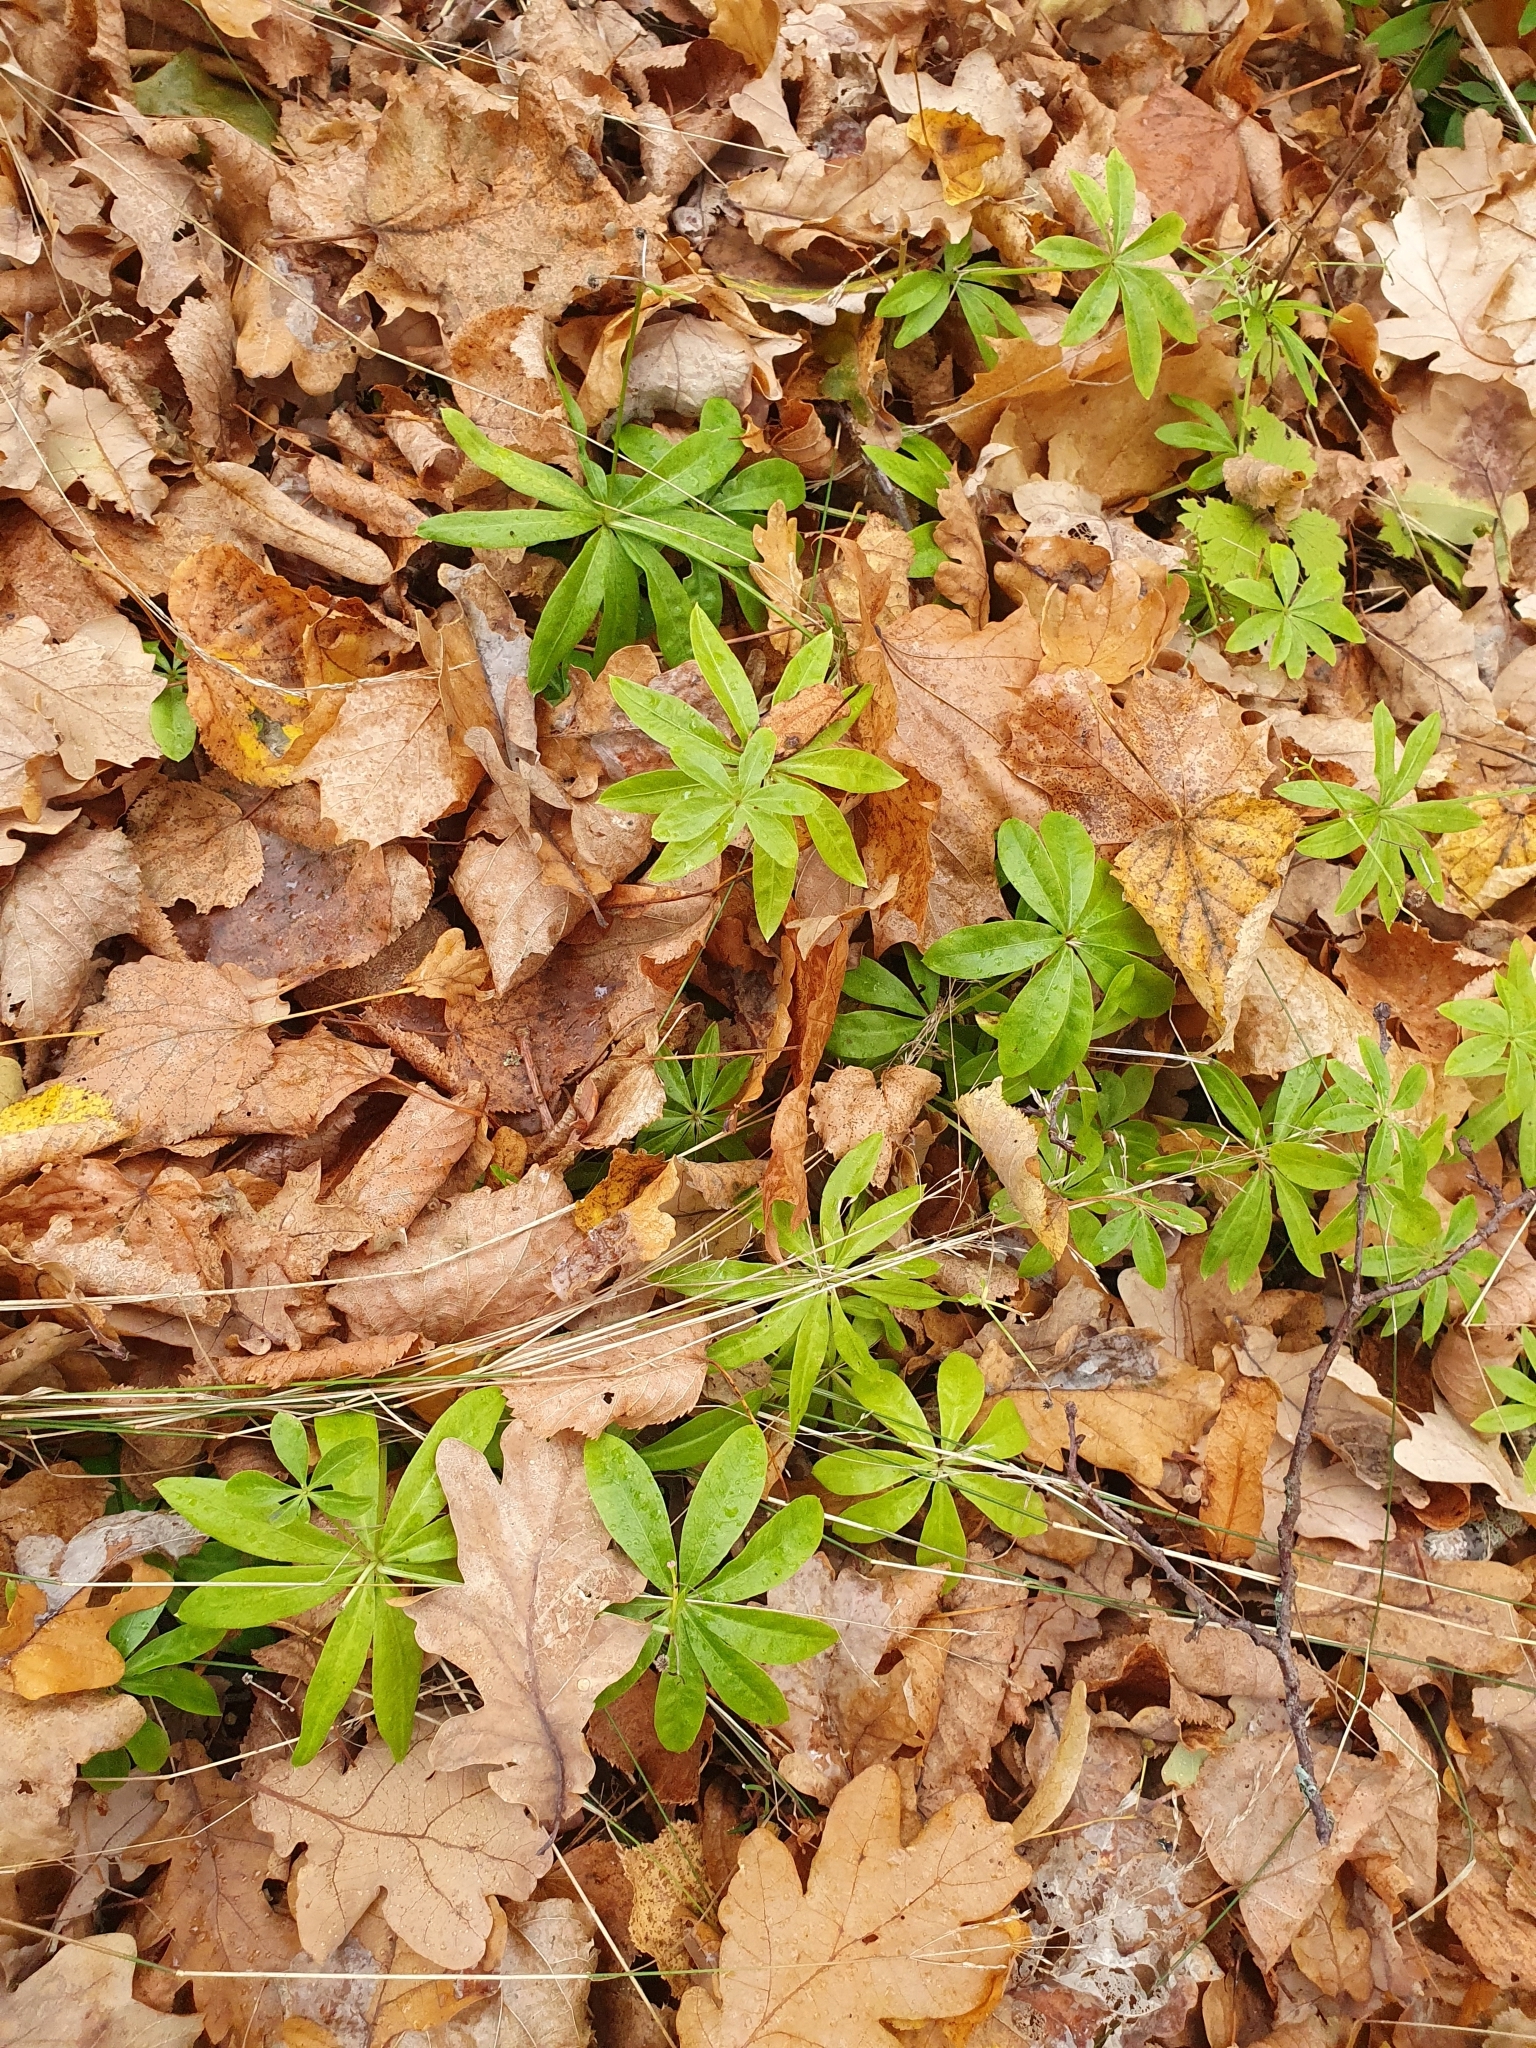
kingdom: Plantae
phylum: Tracheophyta
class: Magnoliopsida
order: Gentianales
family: Rubiaceae
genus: Galium
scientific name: Galium odoratum
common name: Sweet woodruff
